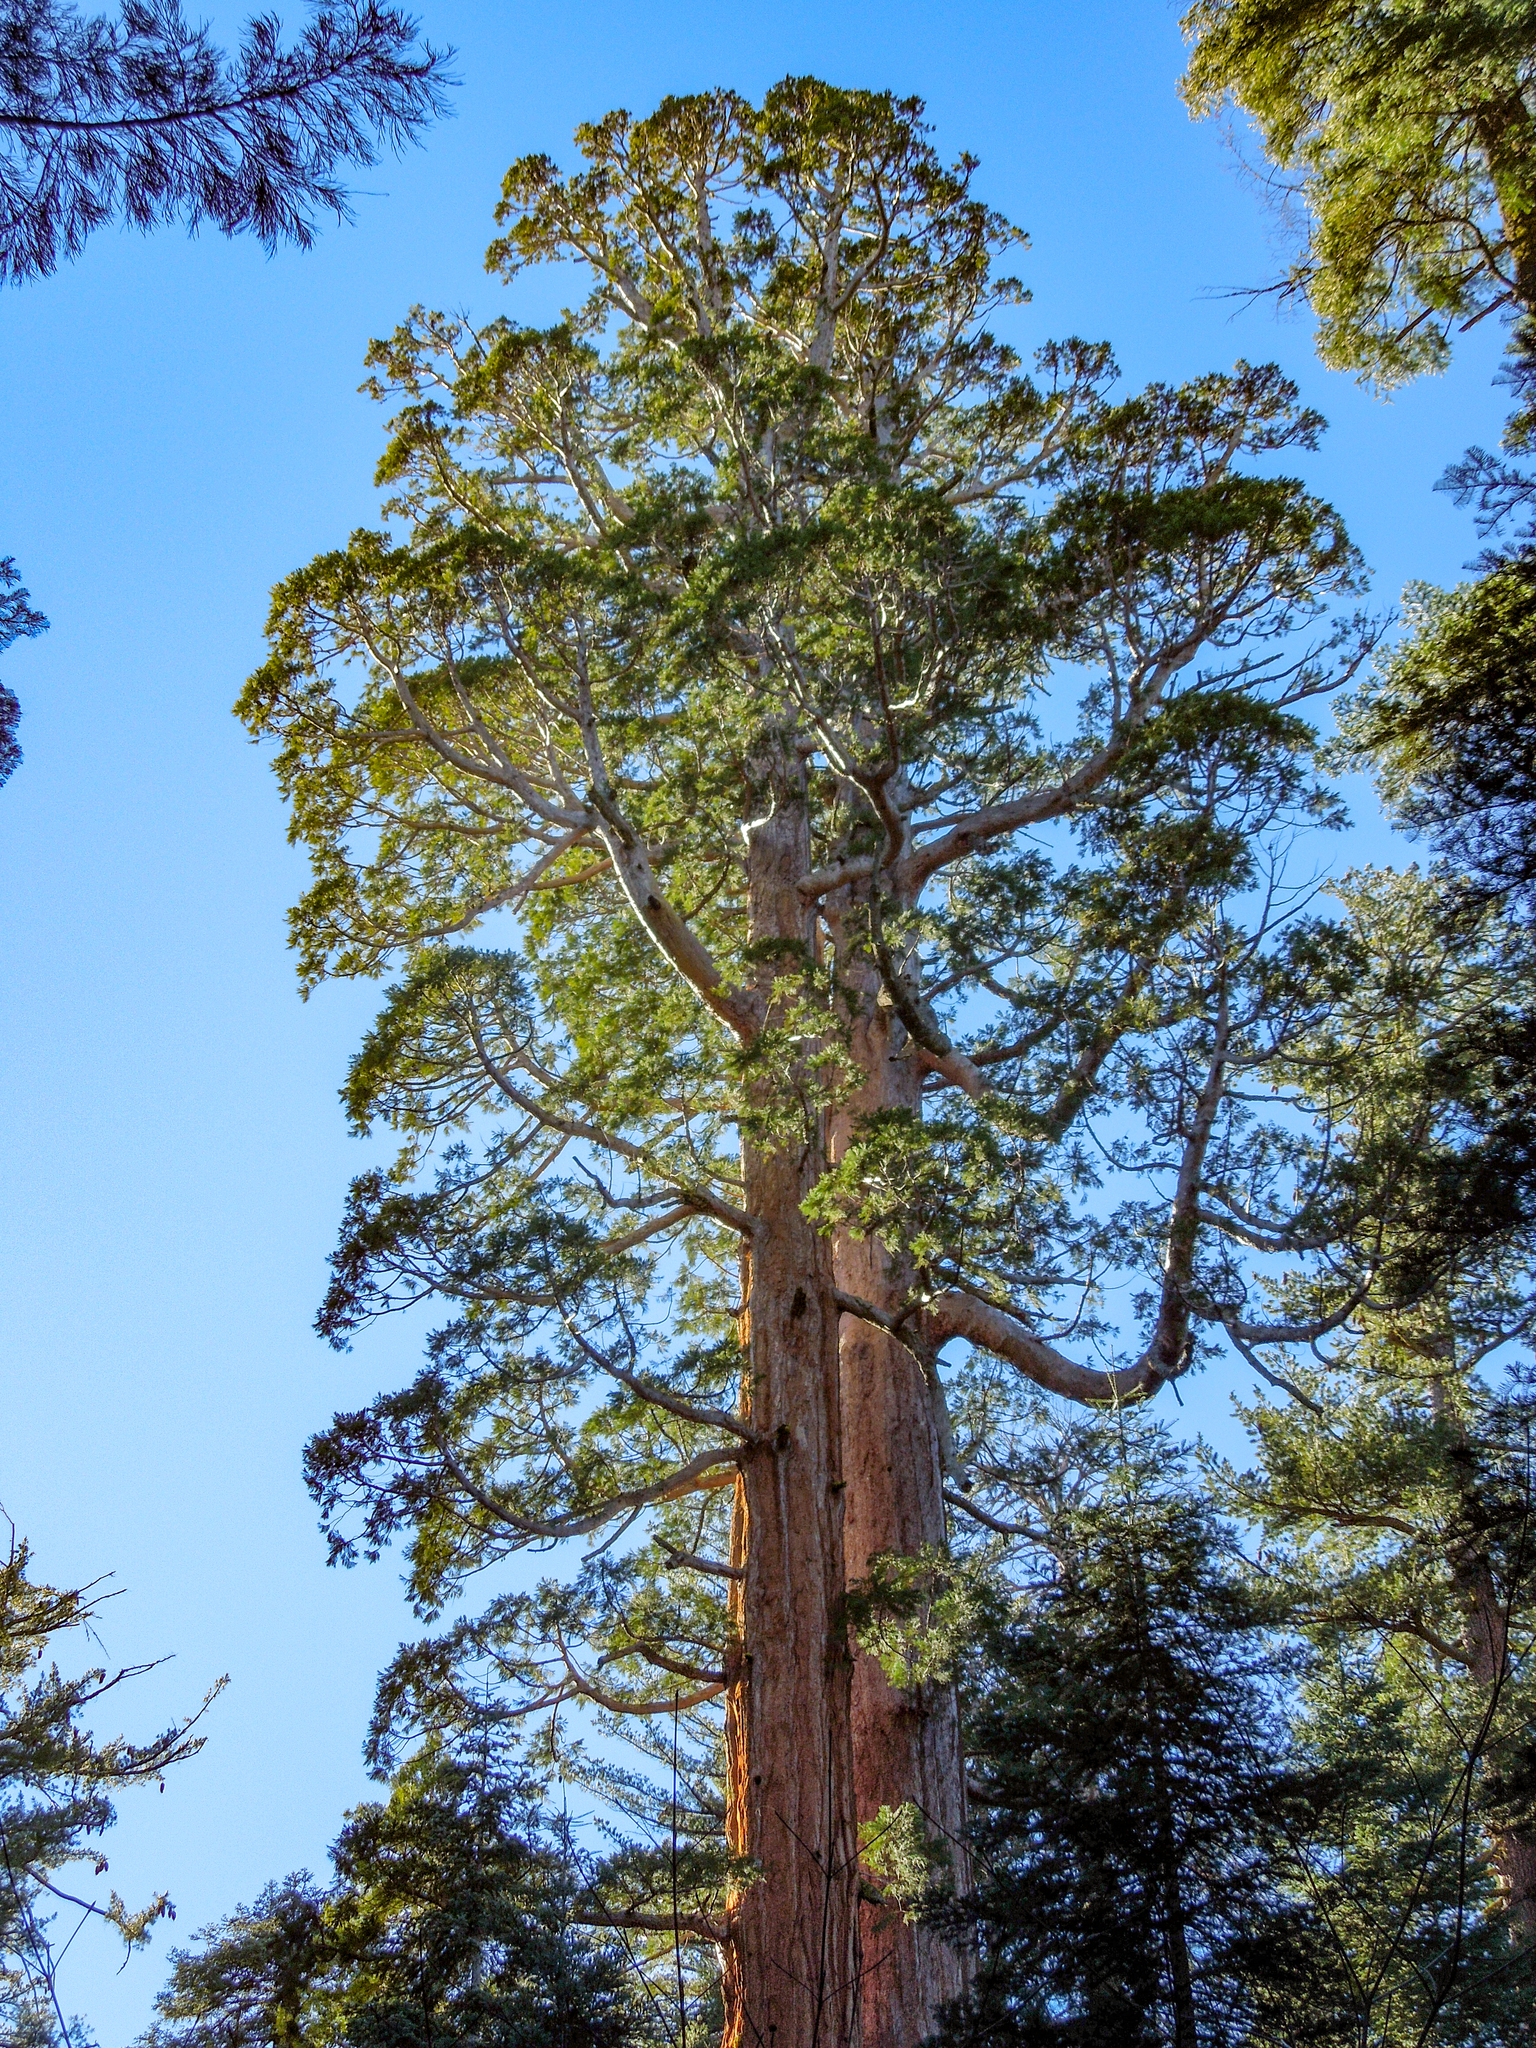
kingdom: Plantae
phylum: Tracheophyta
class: Pinopsida
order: Pinales
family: Cupressaceae
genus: Sequoiadendron
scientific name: Sequoiadendron giganteum
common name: Wellingtonia
